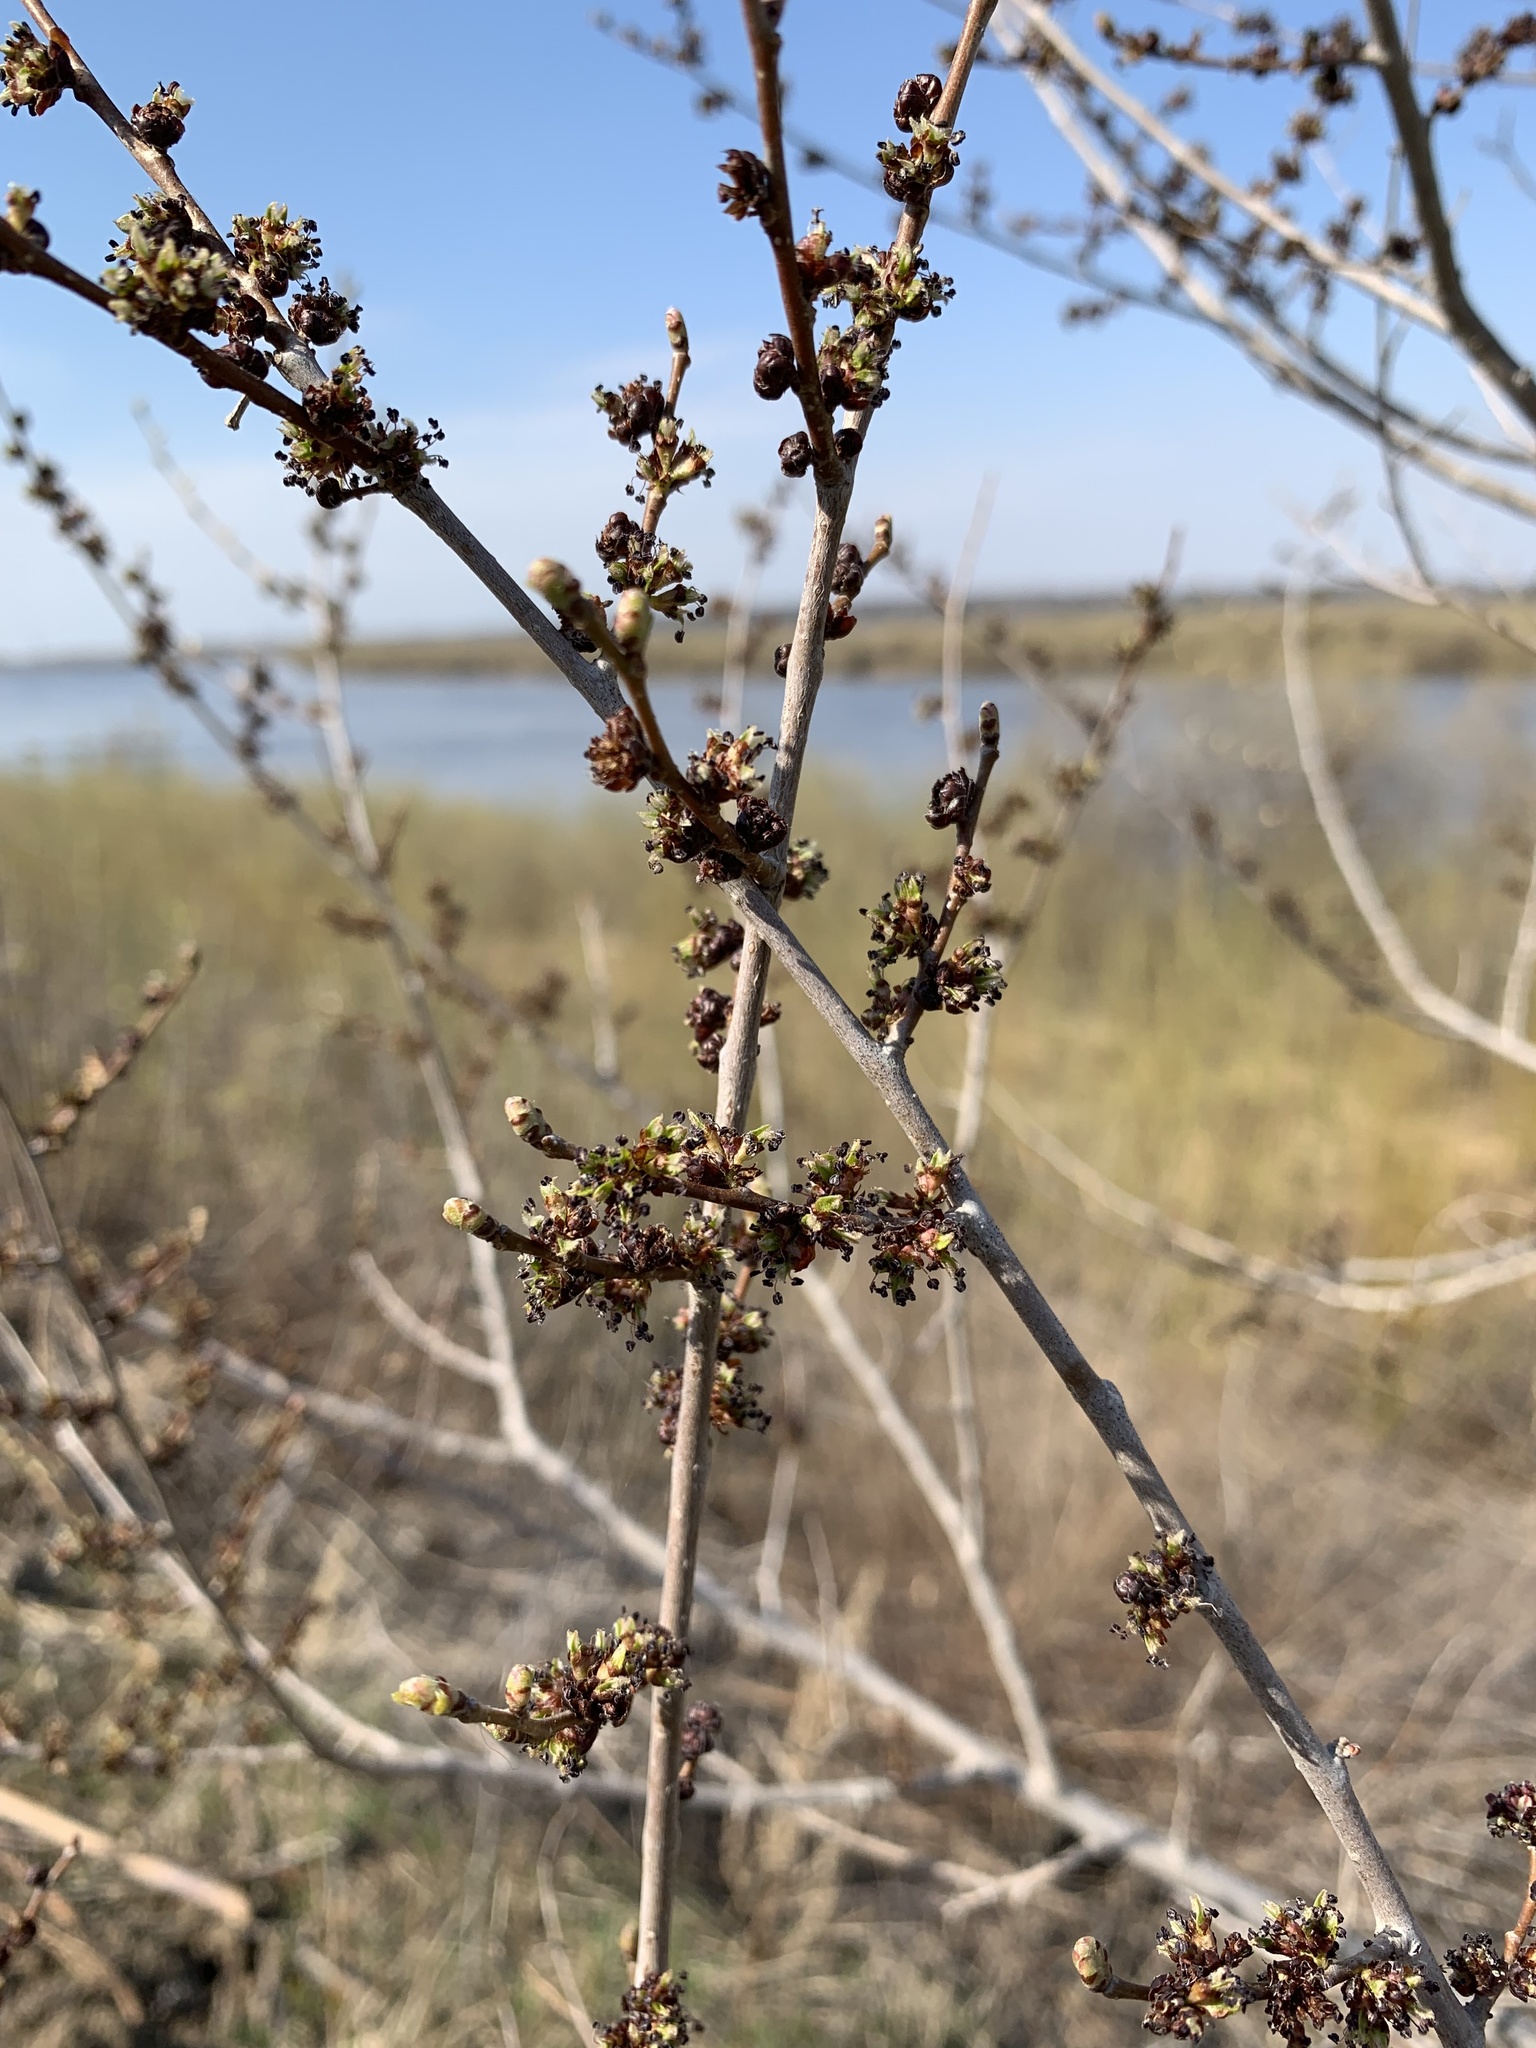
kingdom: Plantae
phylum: Tracheophyta
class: Magnoliopsida
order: Rosales
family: Elaeagnaceae
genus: Hippophae
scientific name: Hippophae rhamnoides
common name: Sea-buckthorn
